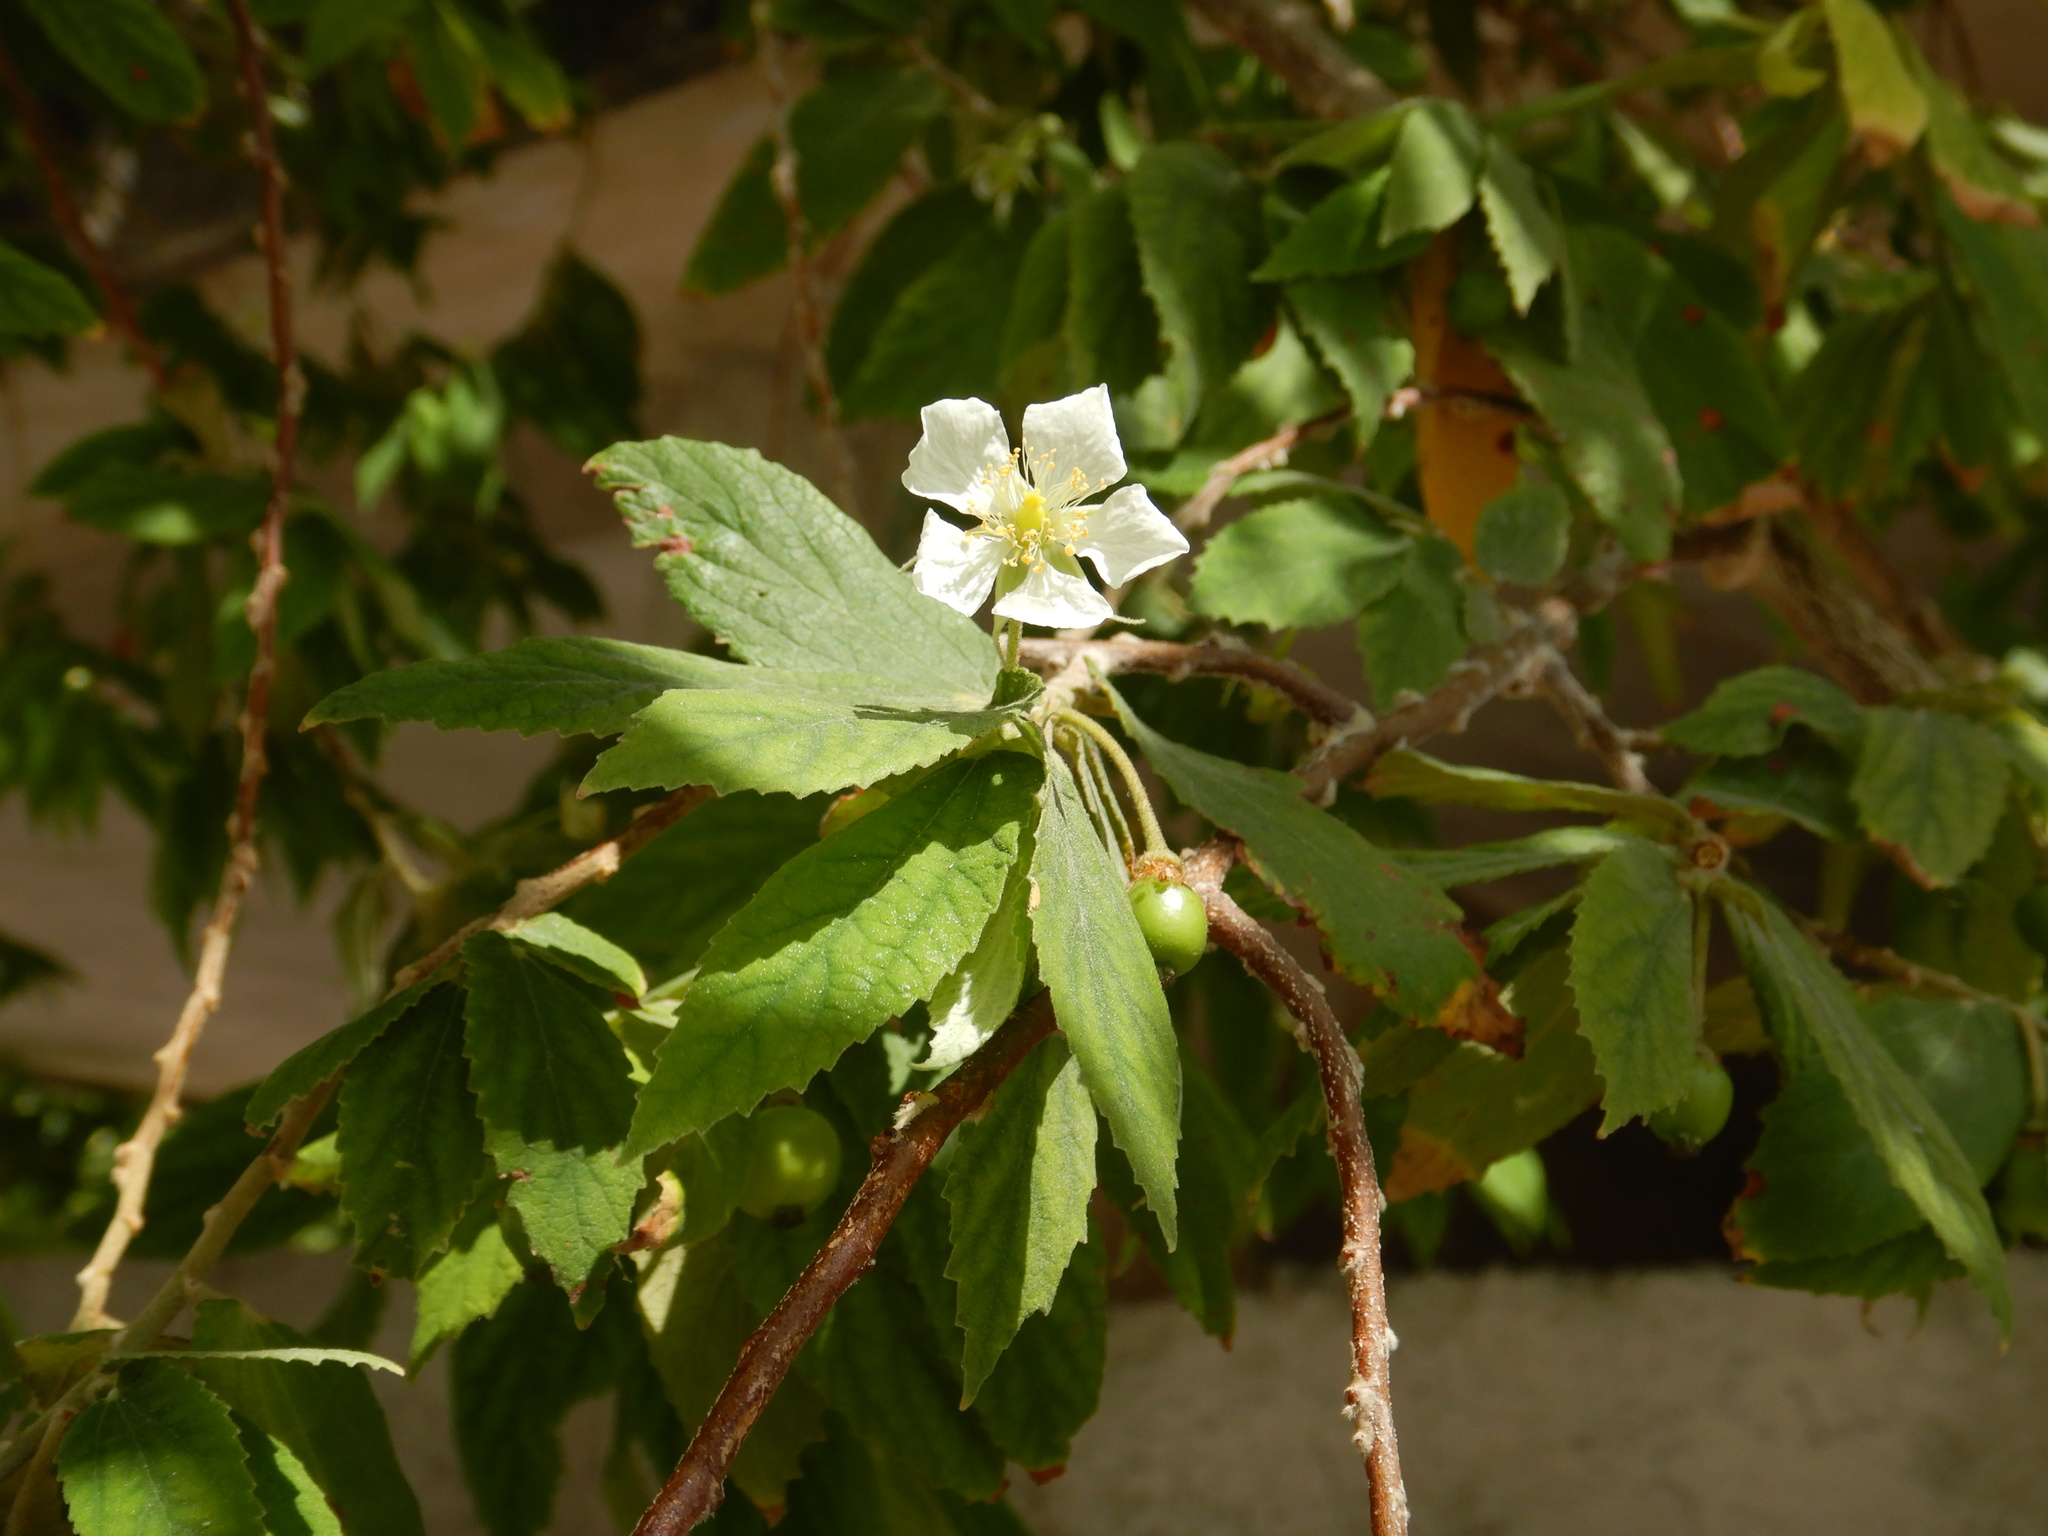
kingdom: Plantae
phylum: Tracheophyta
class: Magnoliopsida
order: Malvales
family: Muntingiaceae
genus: Muntingia
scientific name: Muntingia calabura
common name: Strawberrytree
